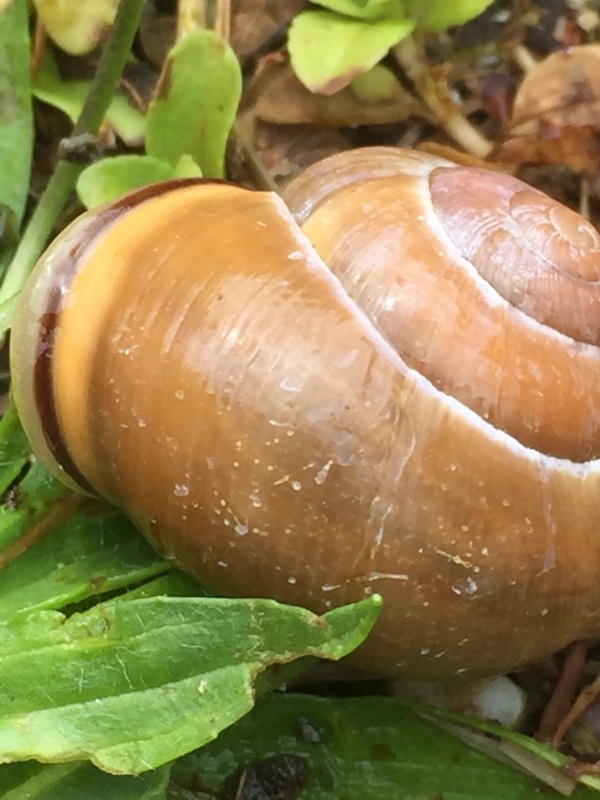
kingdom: Animalia
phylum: Mollusca
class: Gastropoda
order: Stylommatophora
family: Helicidae
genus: Cepaea
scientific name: Cepaea nemoralis
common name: Grovesnail
